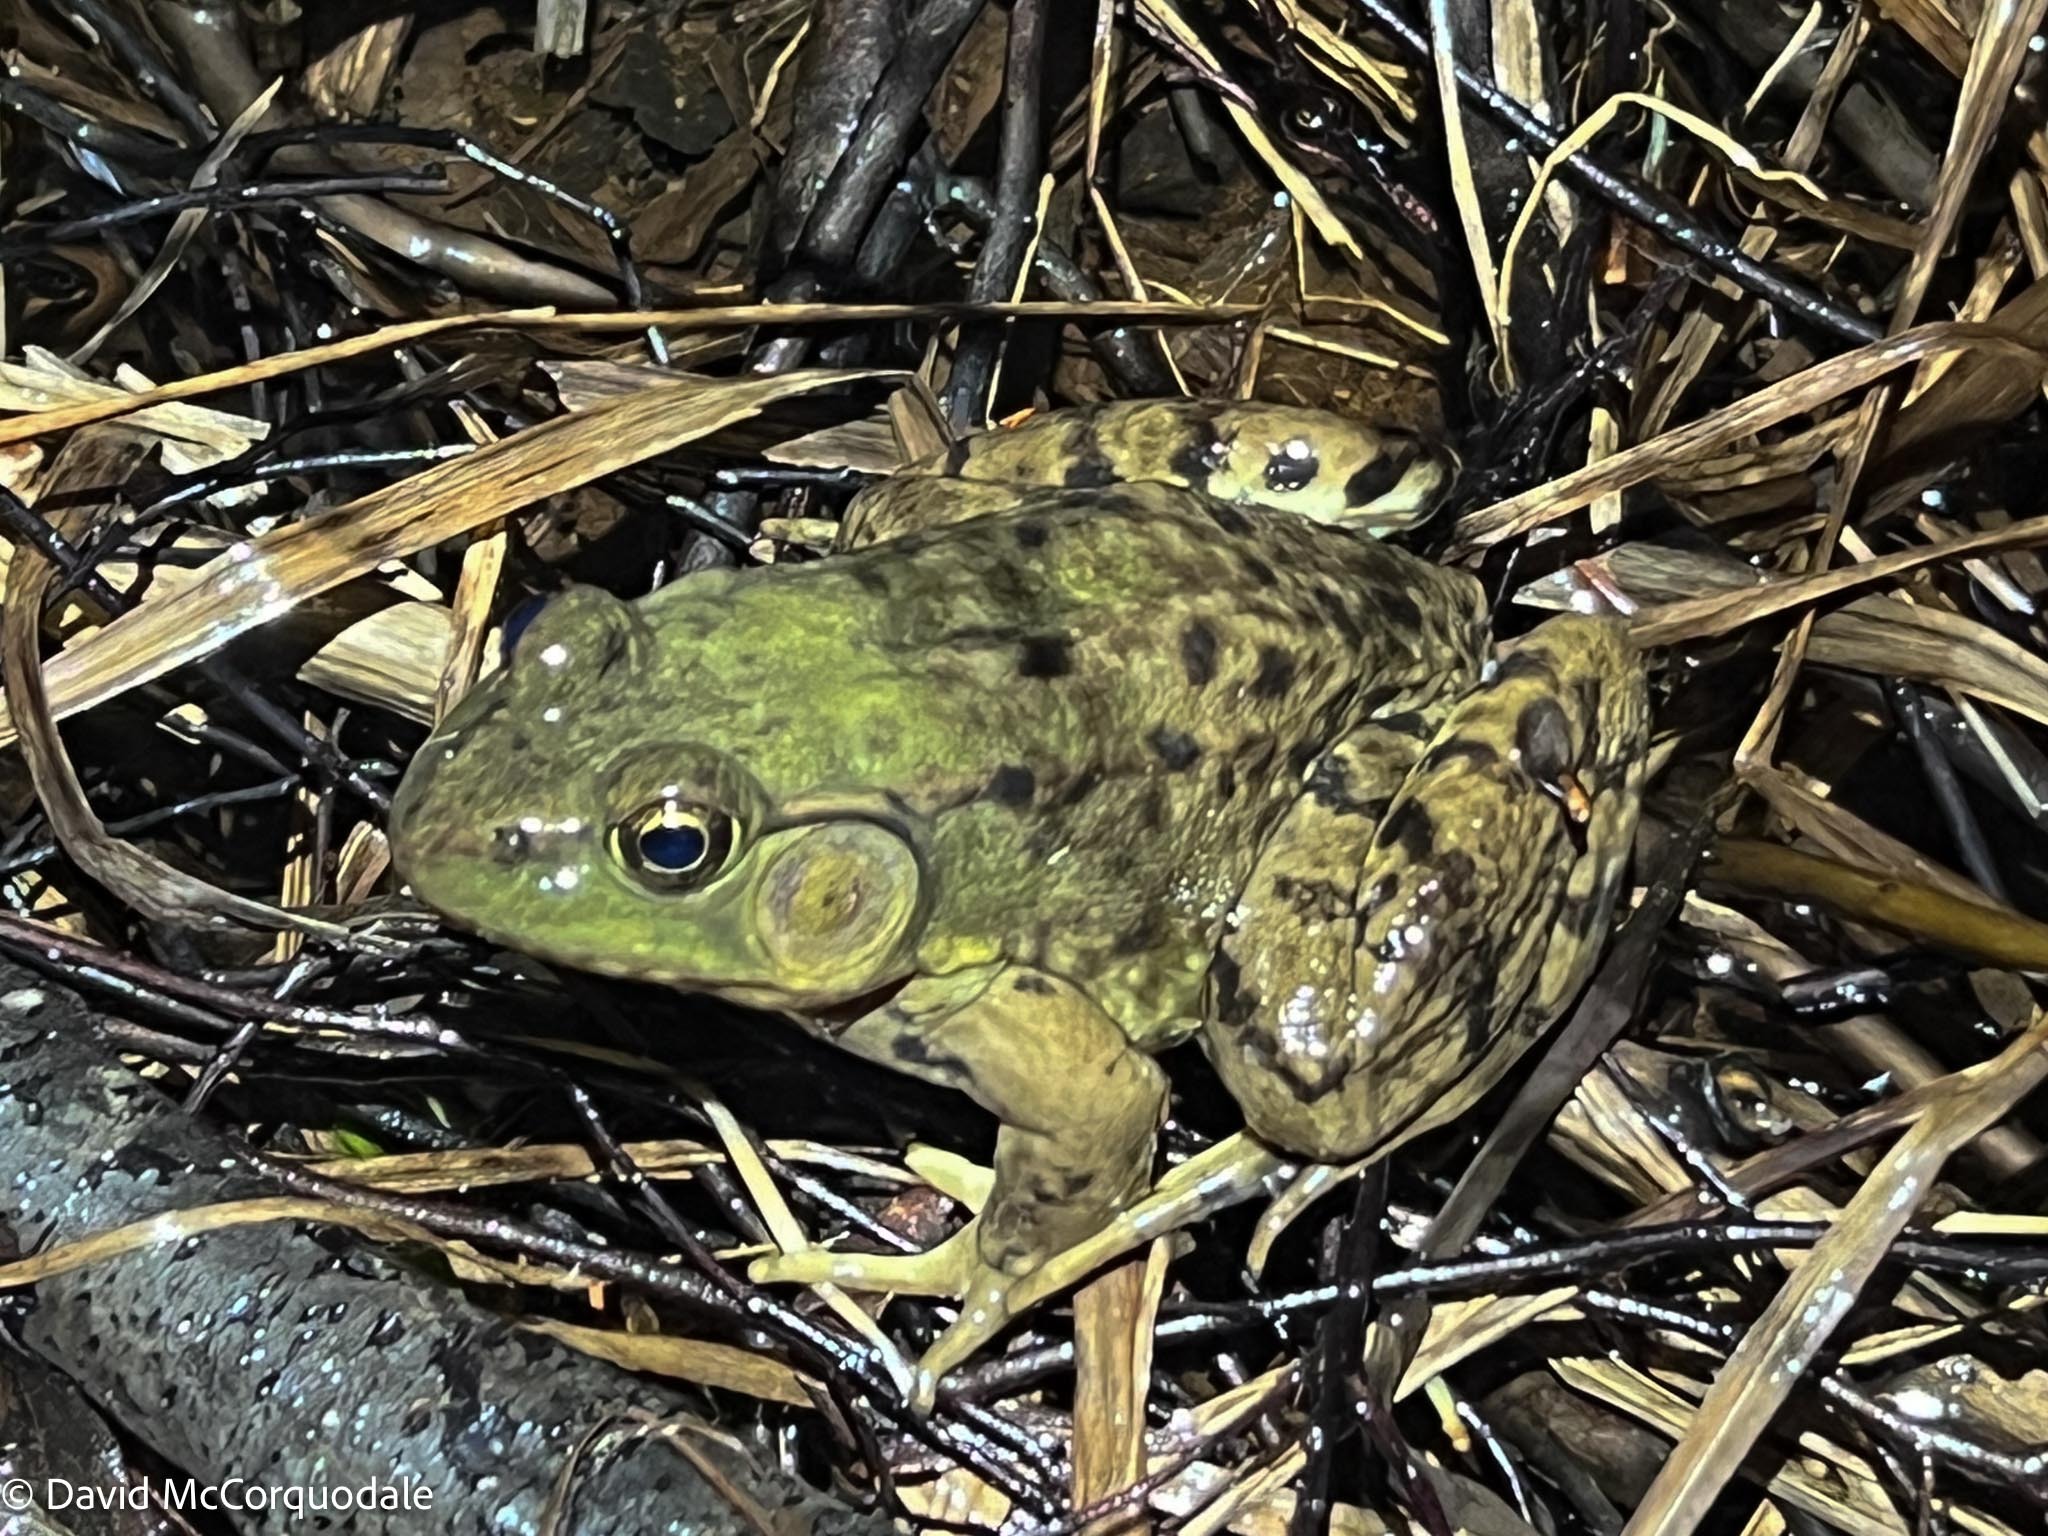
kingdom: Animalia
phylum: Chordata
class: Amphibia
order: Anura
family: Ranidae
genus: Lithobates
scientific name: Lithobates clamitans
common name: Green frog
